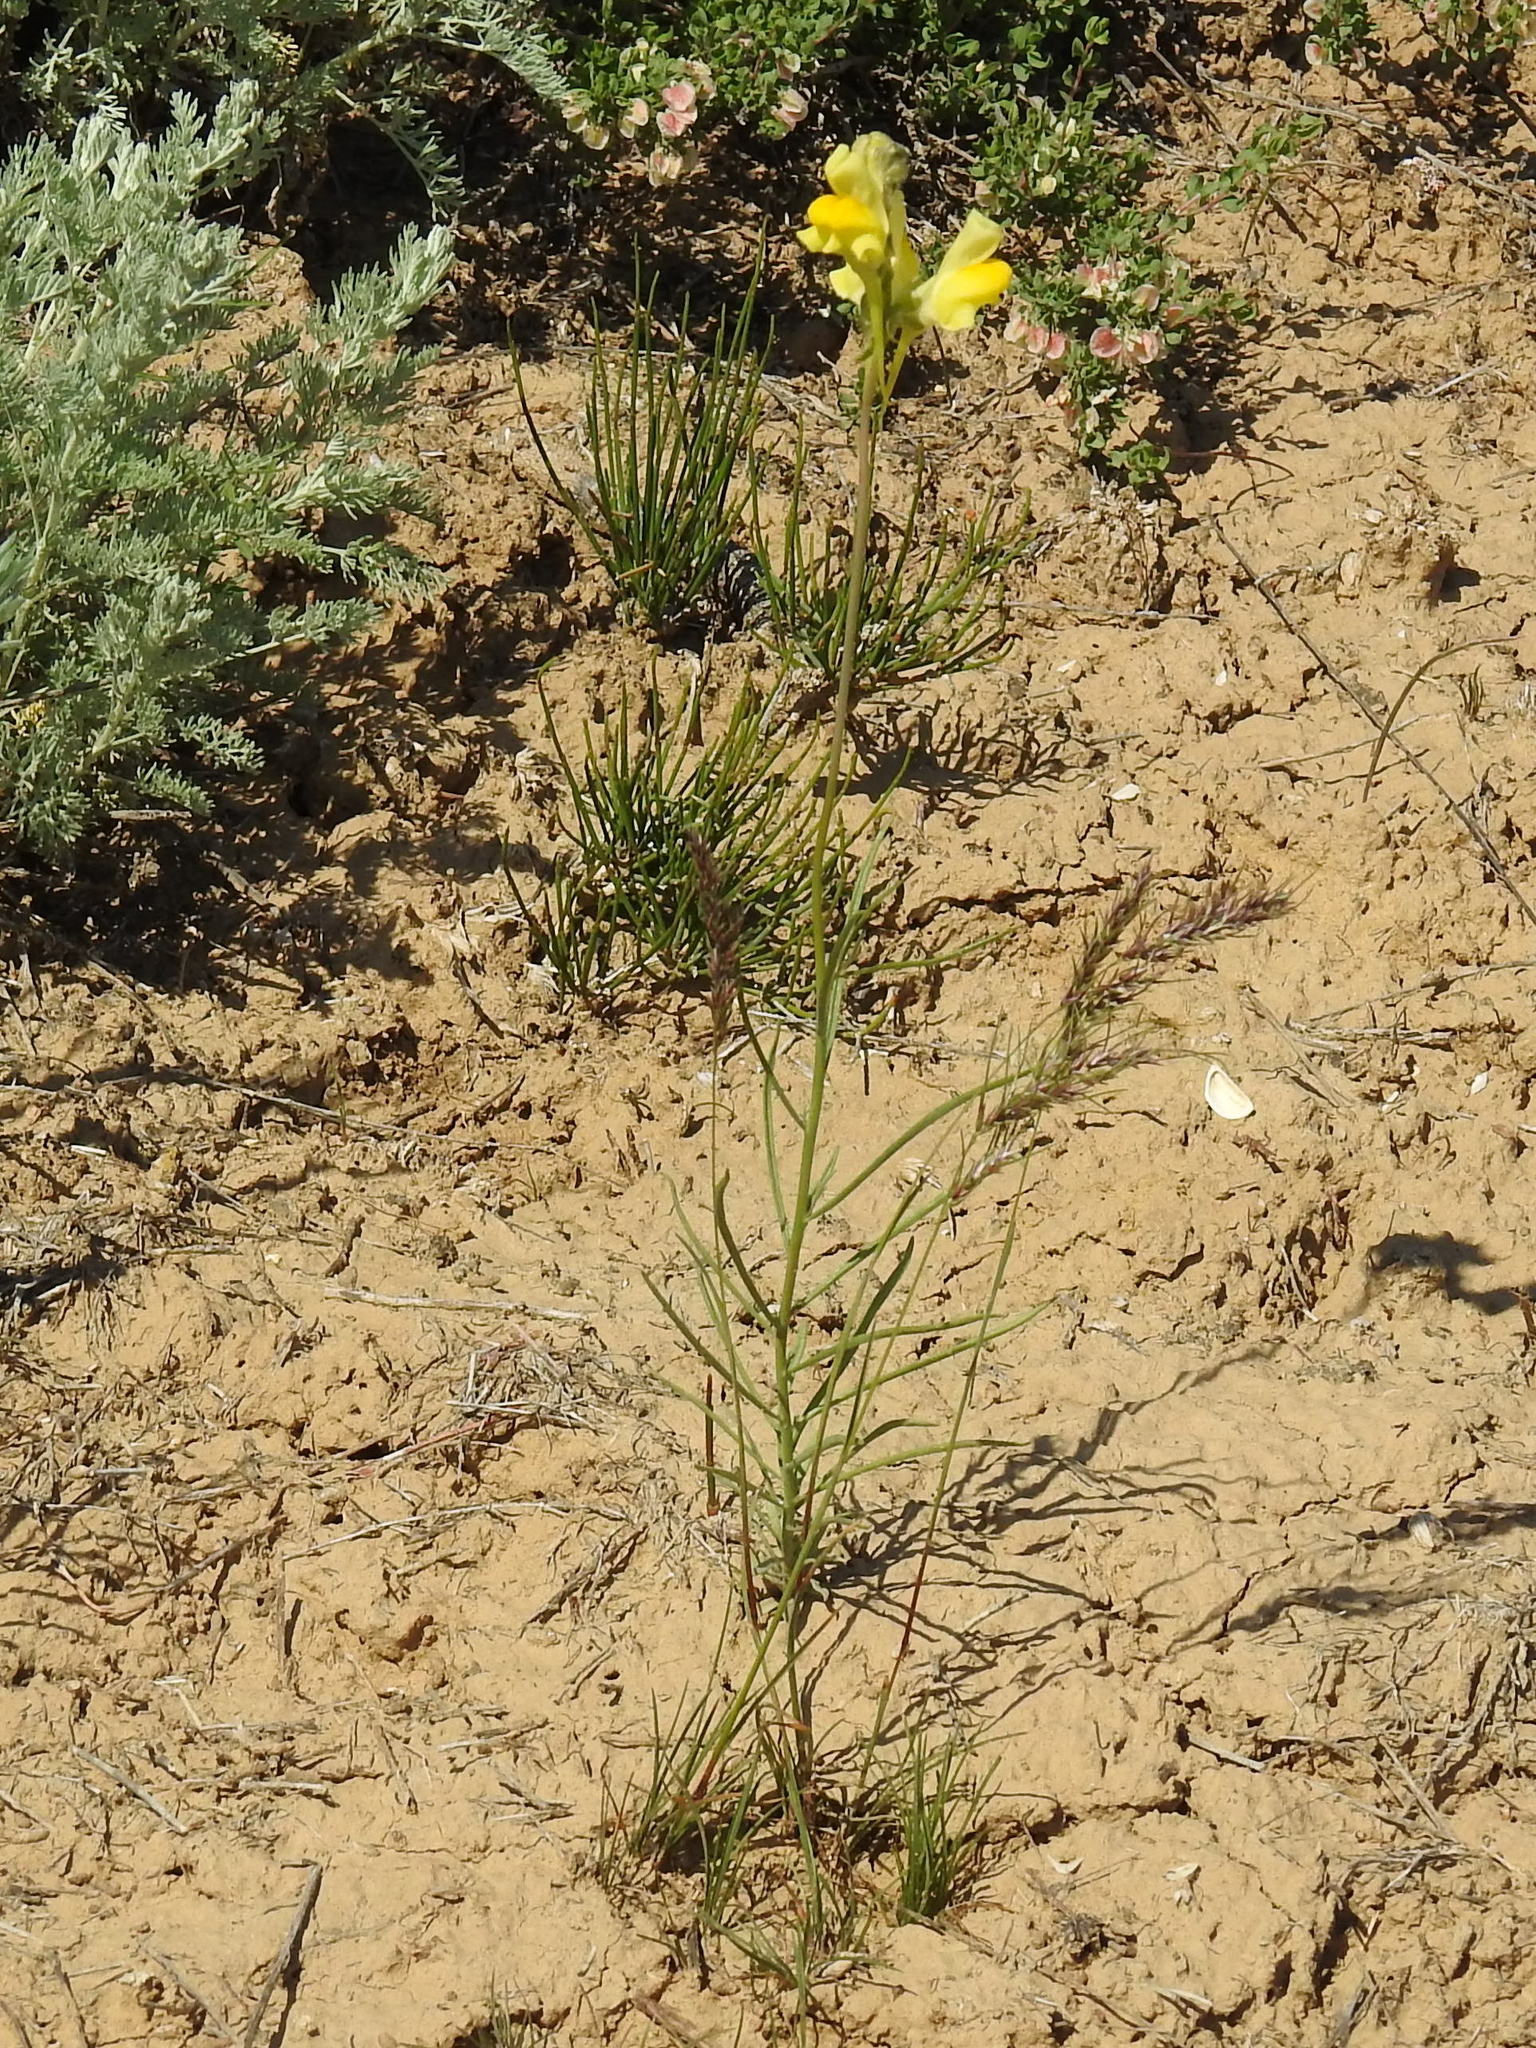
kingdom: Plantae
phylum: Tracheophyta
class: Magnoliopsida
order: Lamiales
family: Plantaginaceae
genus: Linaria
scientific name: Linaria macroura
